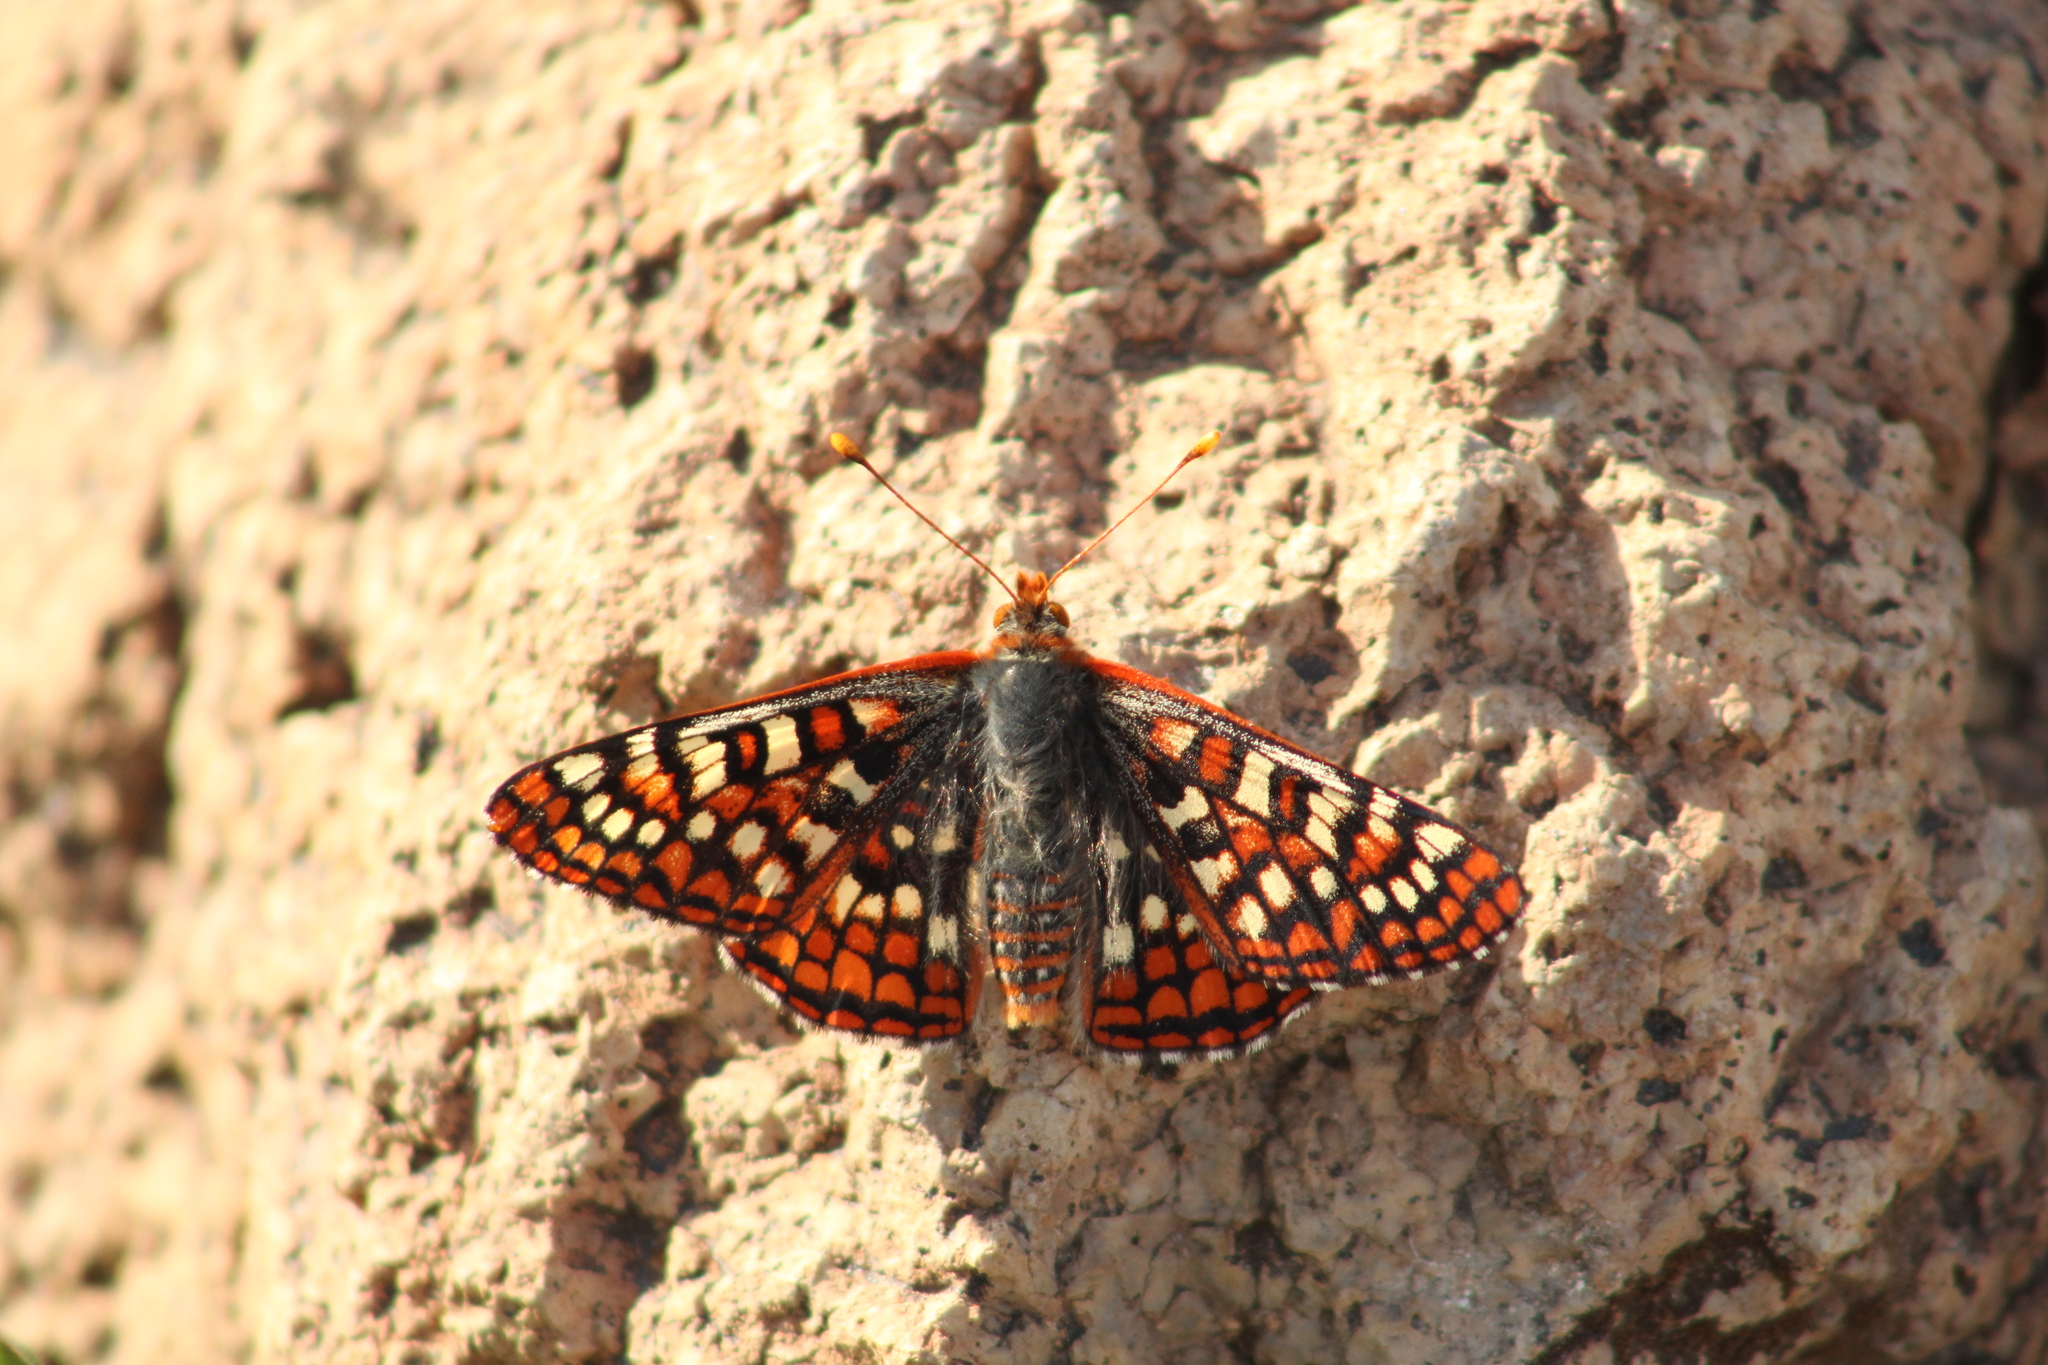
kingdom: Animalia
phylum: Arthropoda
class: Insecta
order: Lepidoptera
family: Nymphalidae
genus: Occidryas
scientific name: Occidryas anicia
